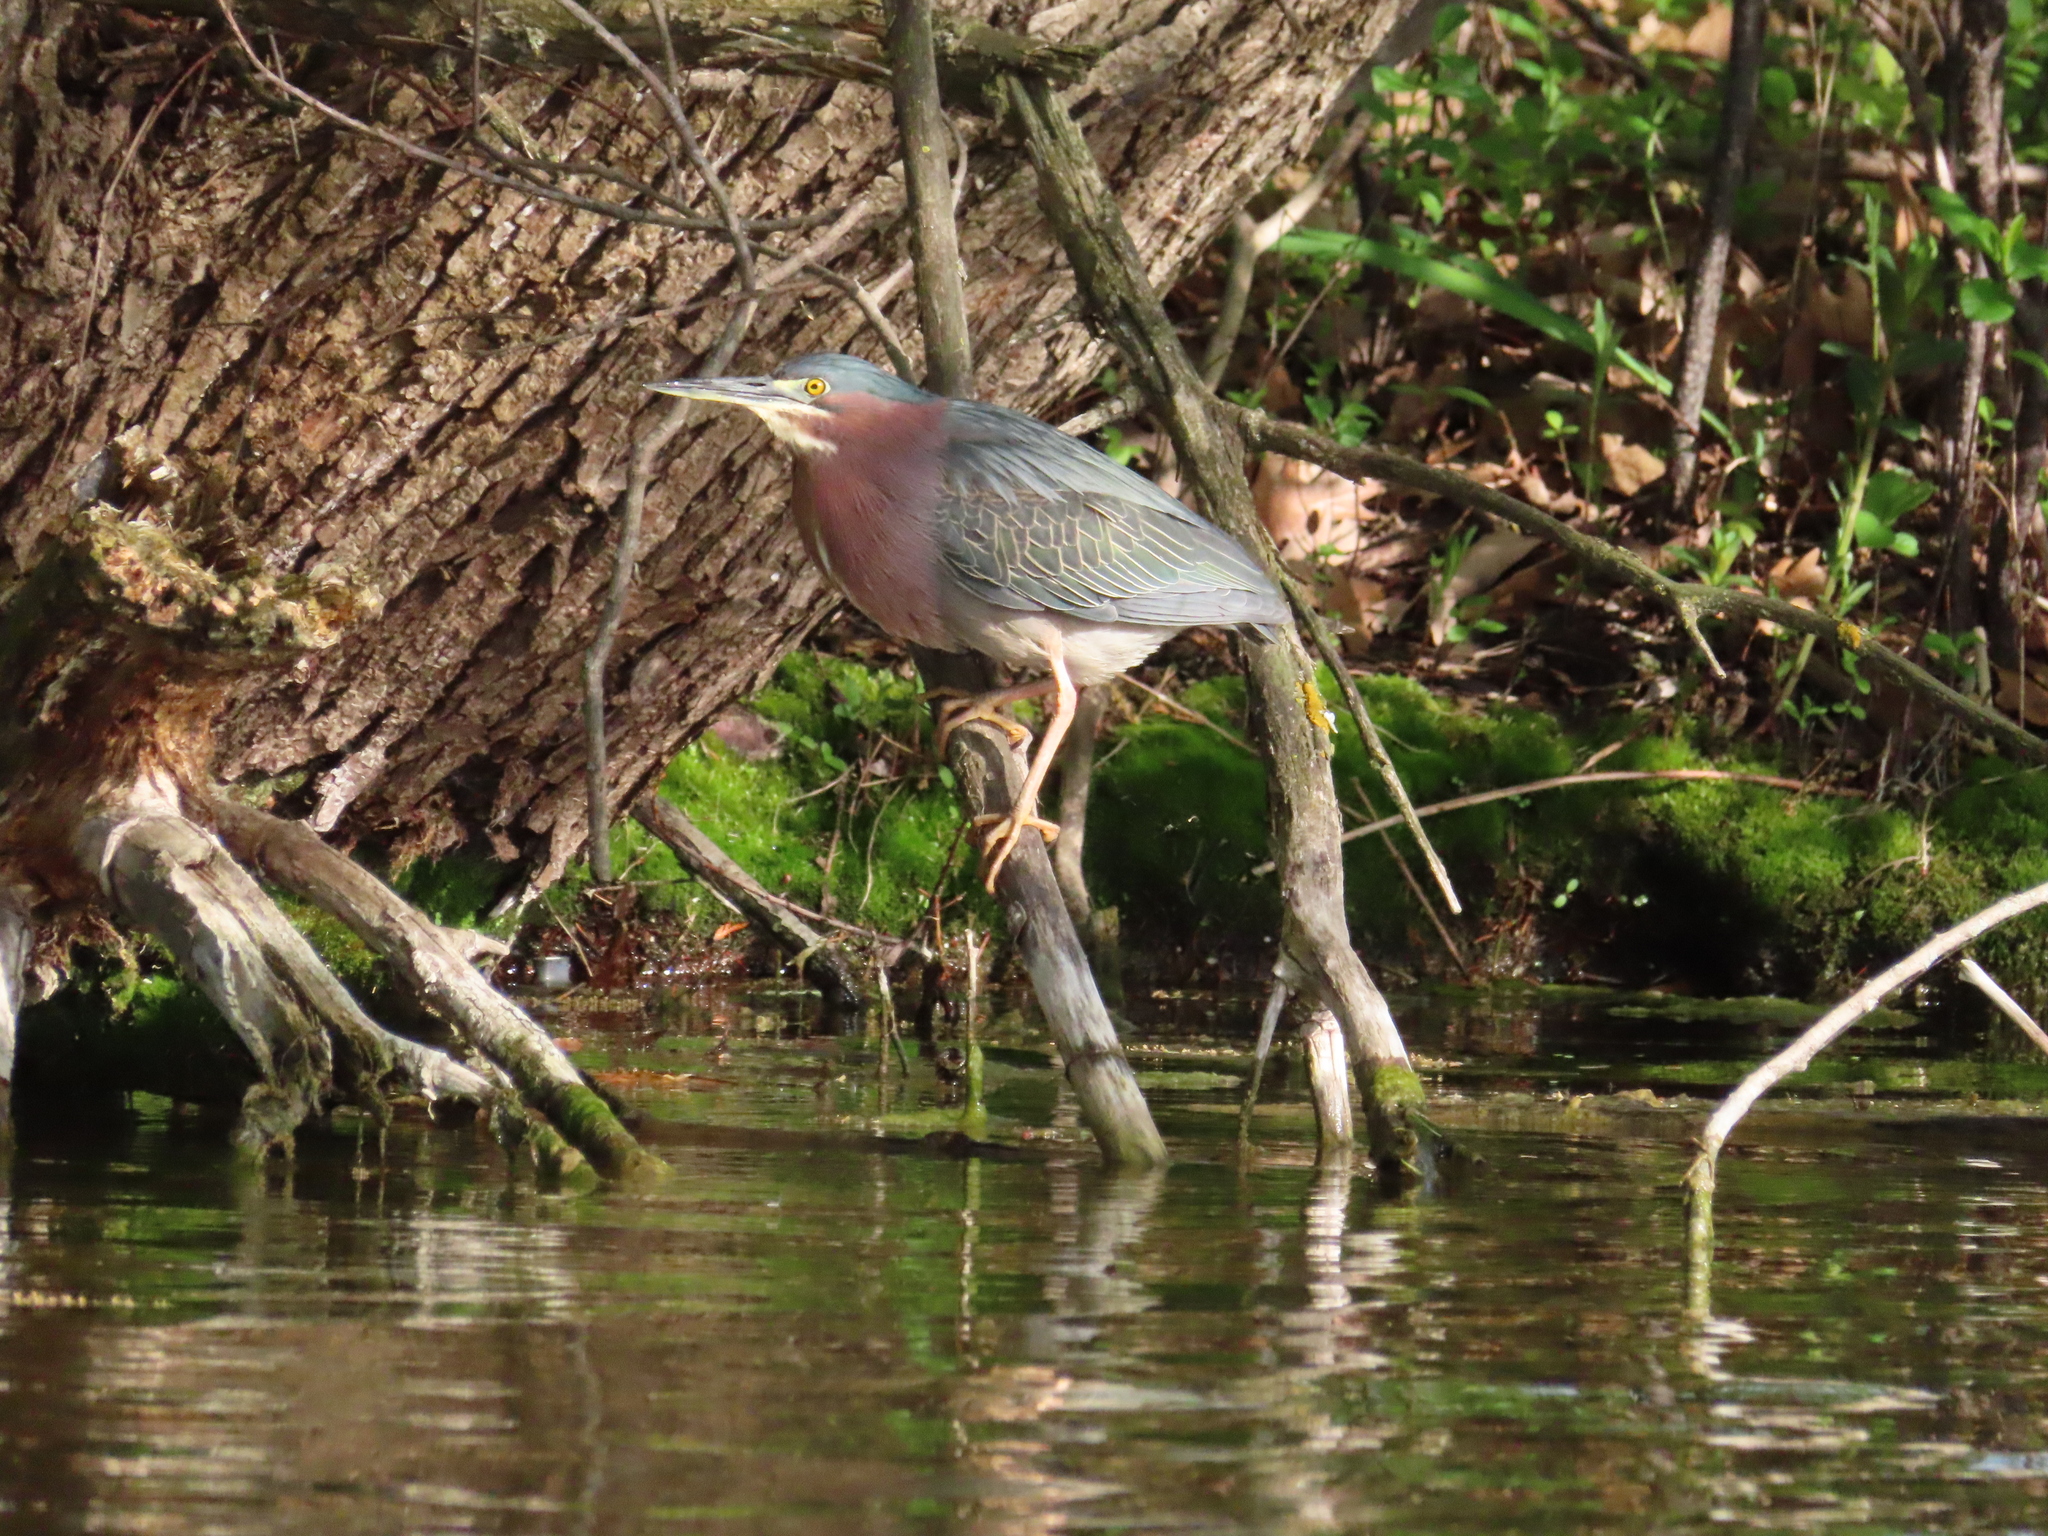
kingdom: Animalia
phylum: Chordata
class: Aves
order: Pelecaniformes
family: Ardeidae
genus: Butorides
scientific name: Butorides virescens
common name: Green heron
